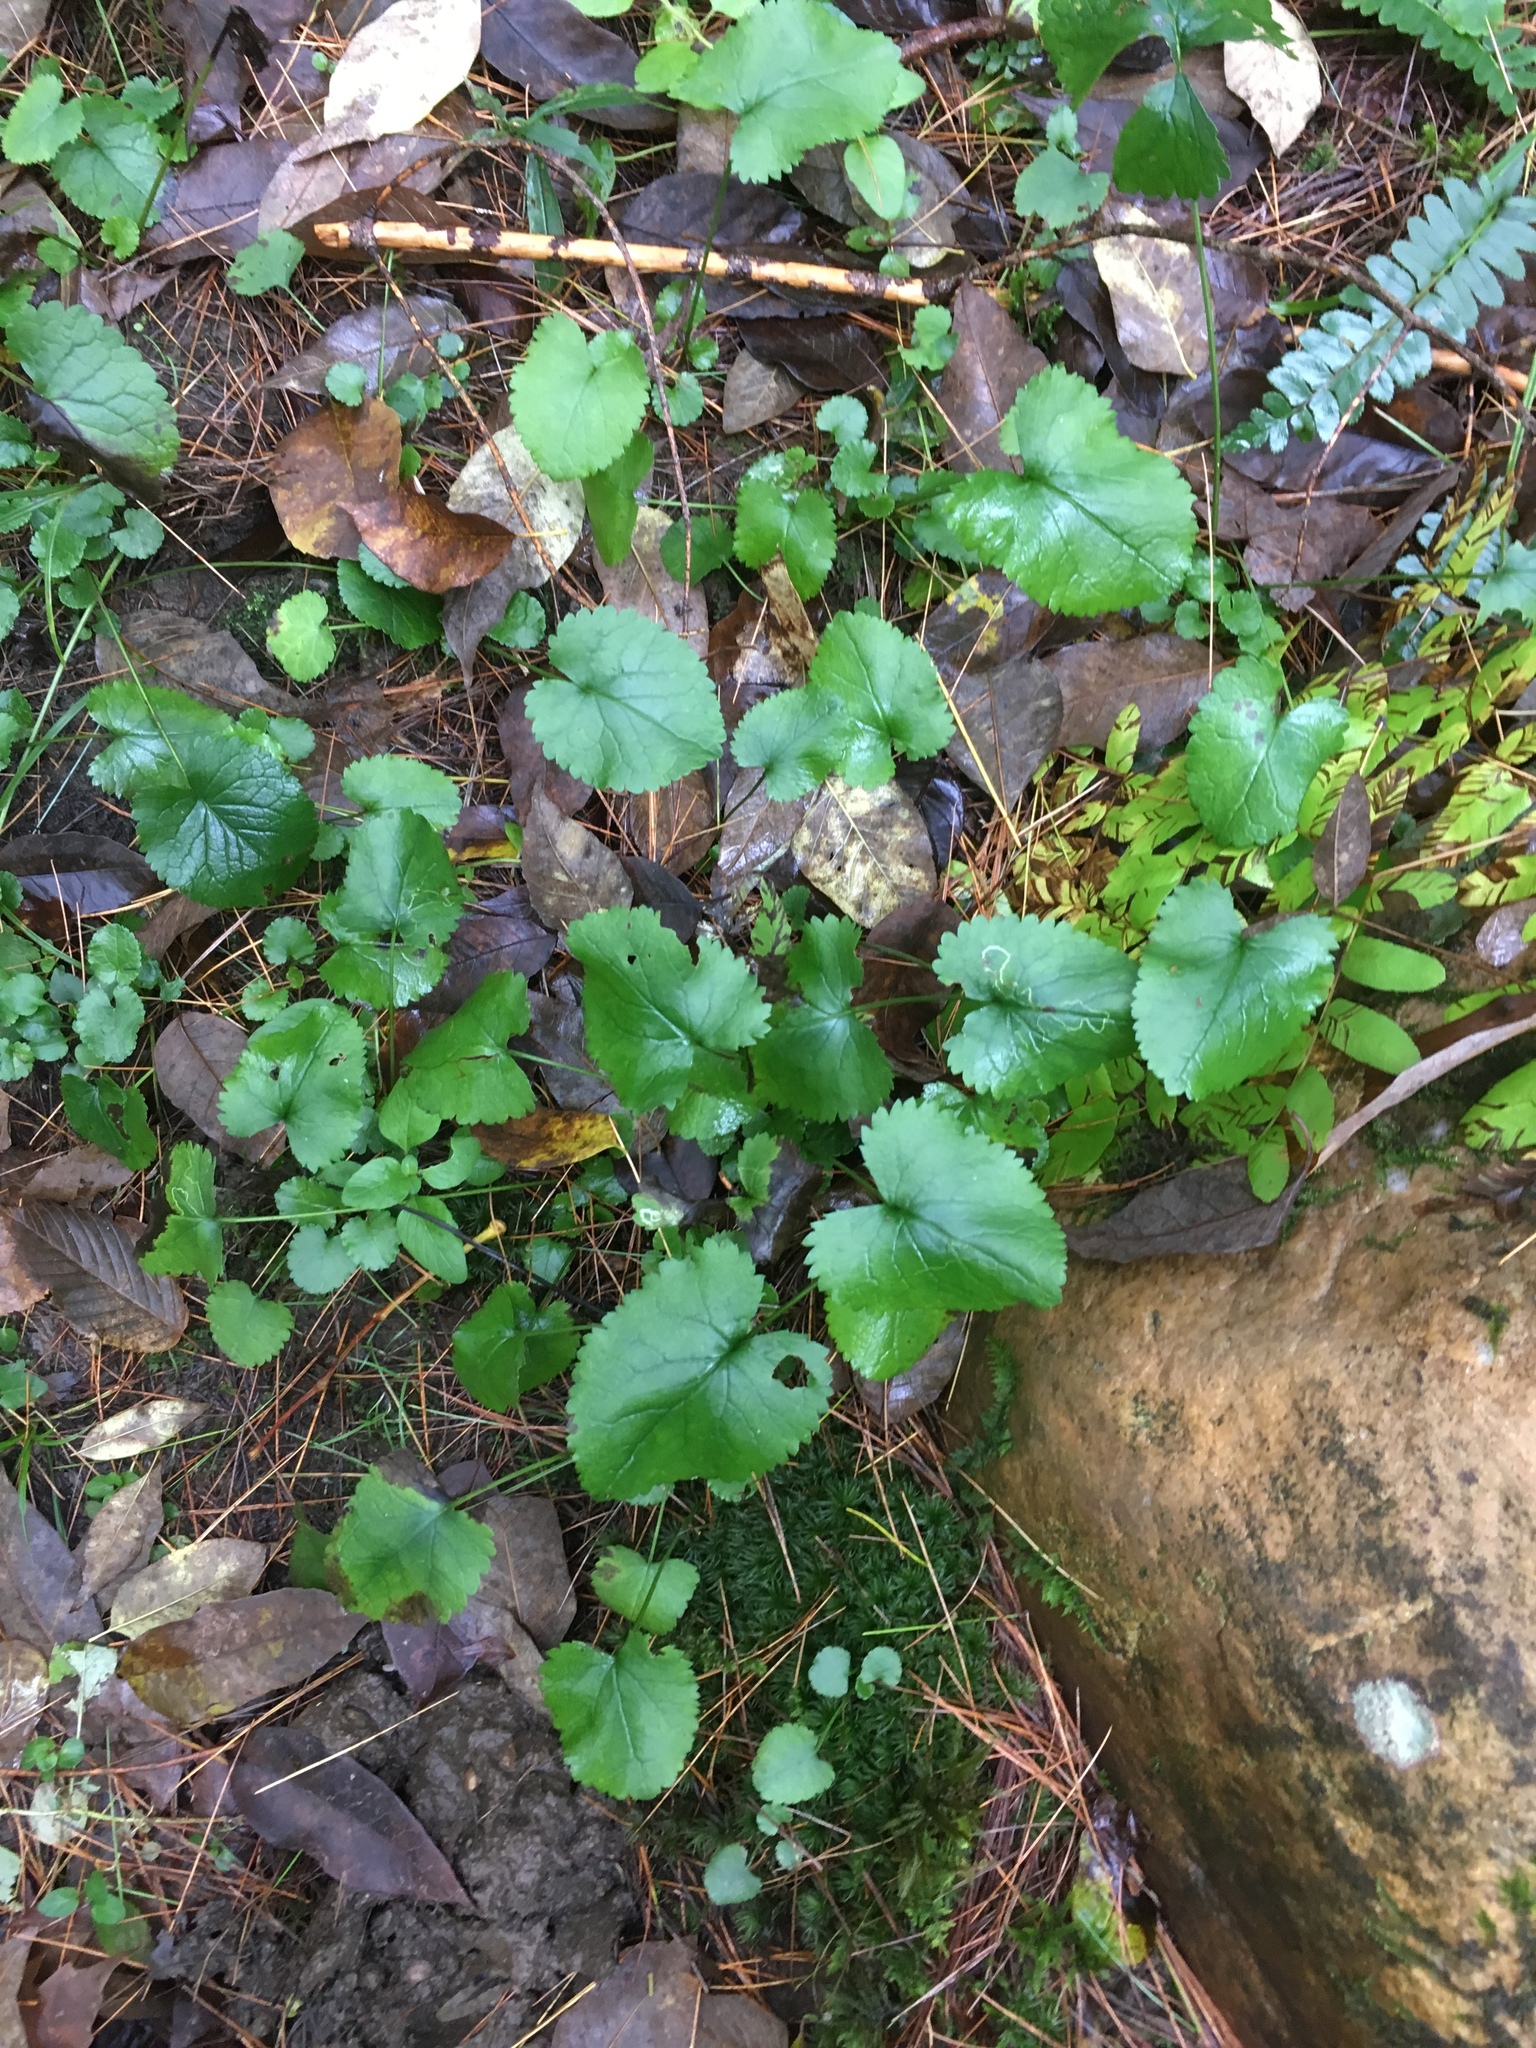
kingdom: Plantae
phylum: Tracheophyta
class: Magnoliopsida
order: Asterales
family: Asteraceae
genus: Packera
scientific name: Packera aurea
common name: Golden groundsel
